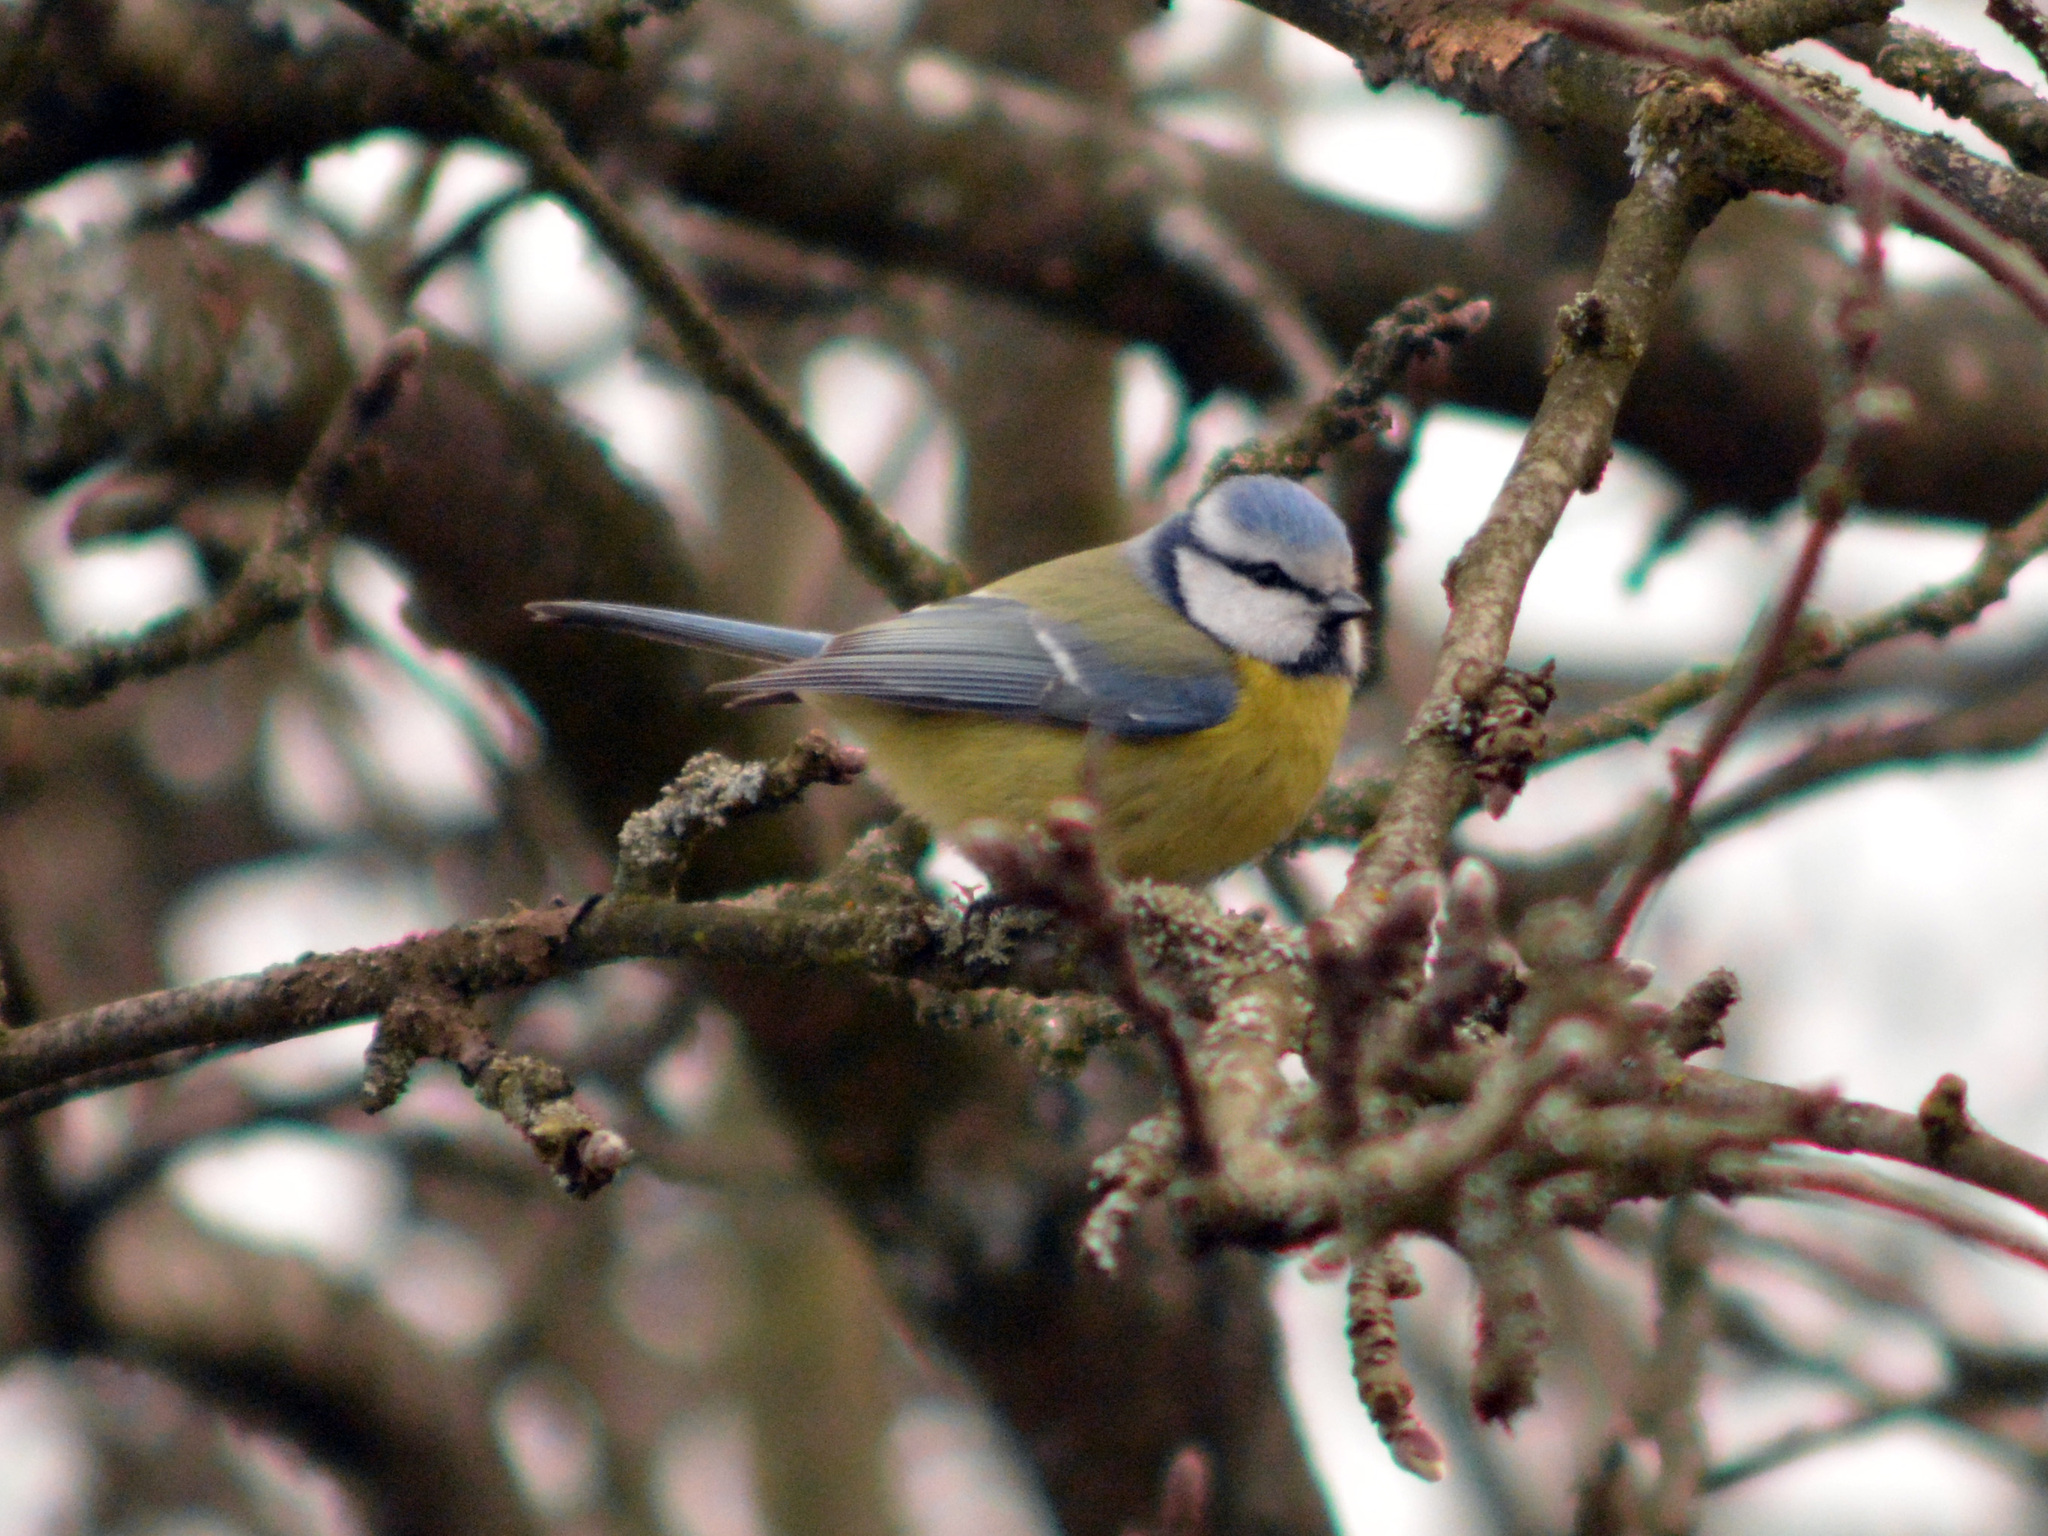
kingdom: Animalia
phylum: Chordata
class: Aves
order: Passeriformes
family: Paridae
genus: Cyanistes
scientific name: Cyanistes caeruleus
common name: Eurasian blue tit
